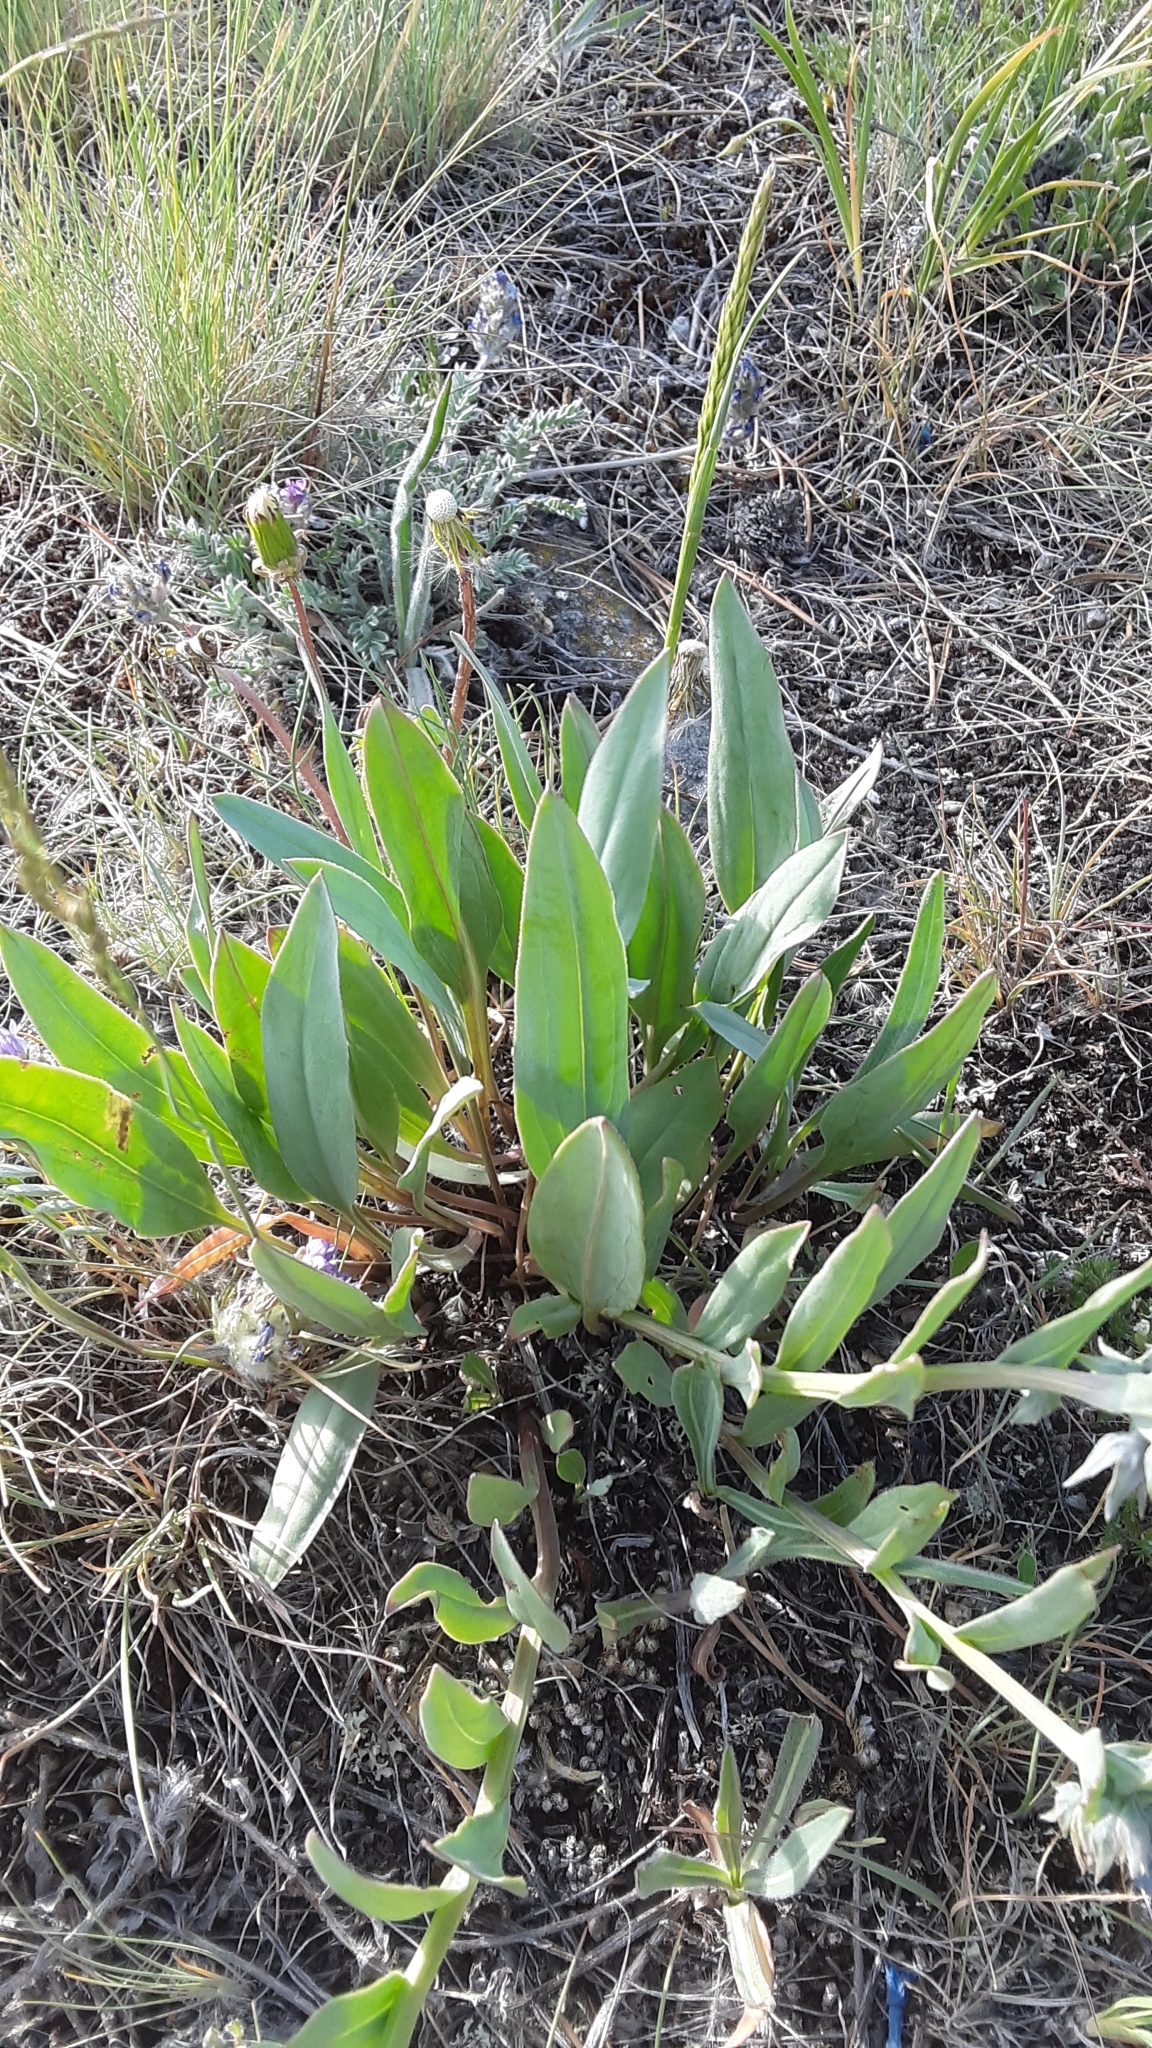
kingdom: Plantae
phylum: Tracheophyta
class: Magnoliopsida
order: Boraginales
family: Boraginaceae
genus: Mertensia
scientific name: Mertensia oblongifolia
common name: Sagebrush bluebells
